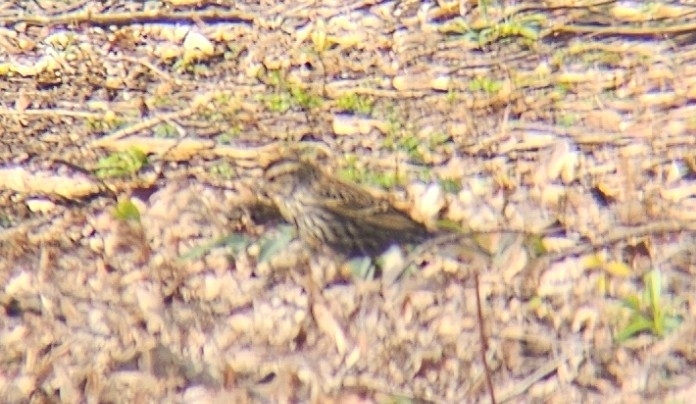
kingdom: Animalia
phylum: Chordata
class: Aves
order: Passeriformes
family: Icteridae
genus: Agelaius
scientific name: Agelaius phoeniceus
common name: Red-winged blackbird
